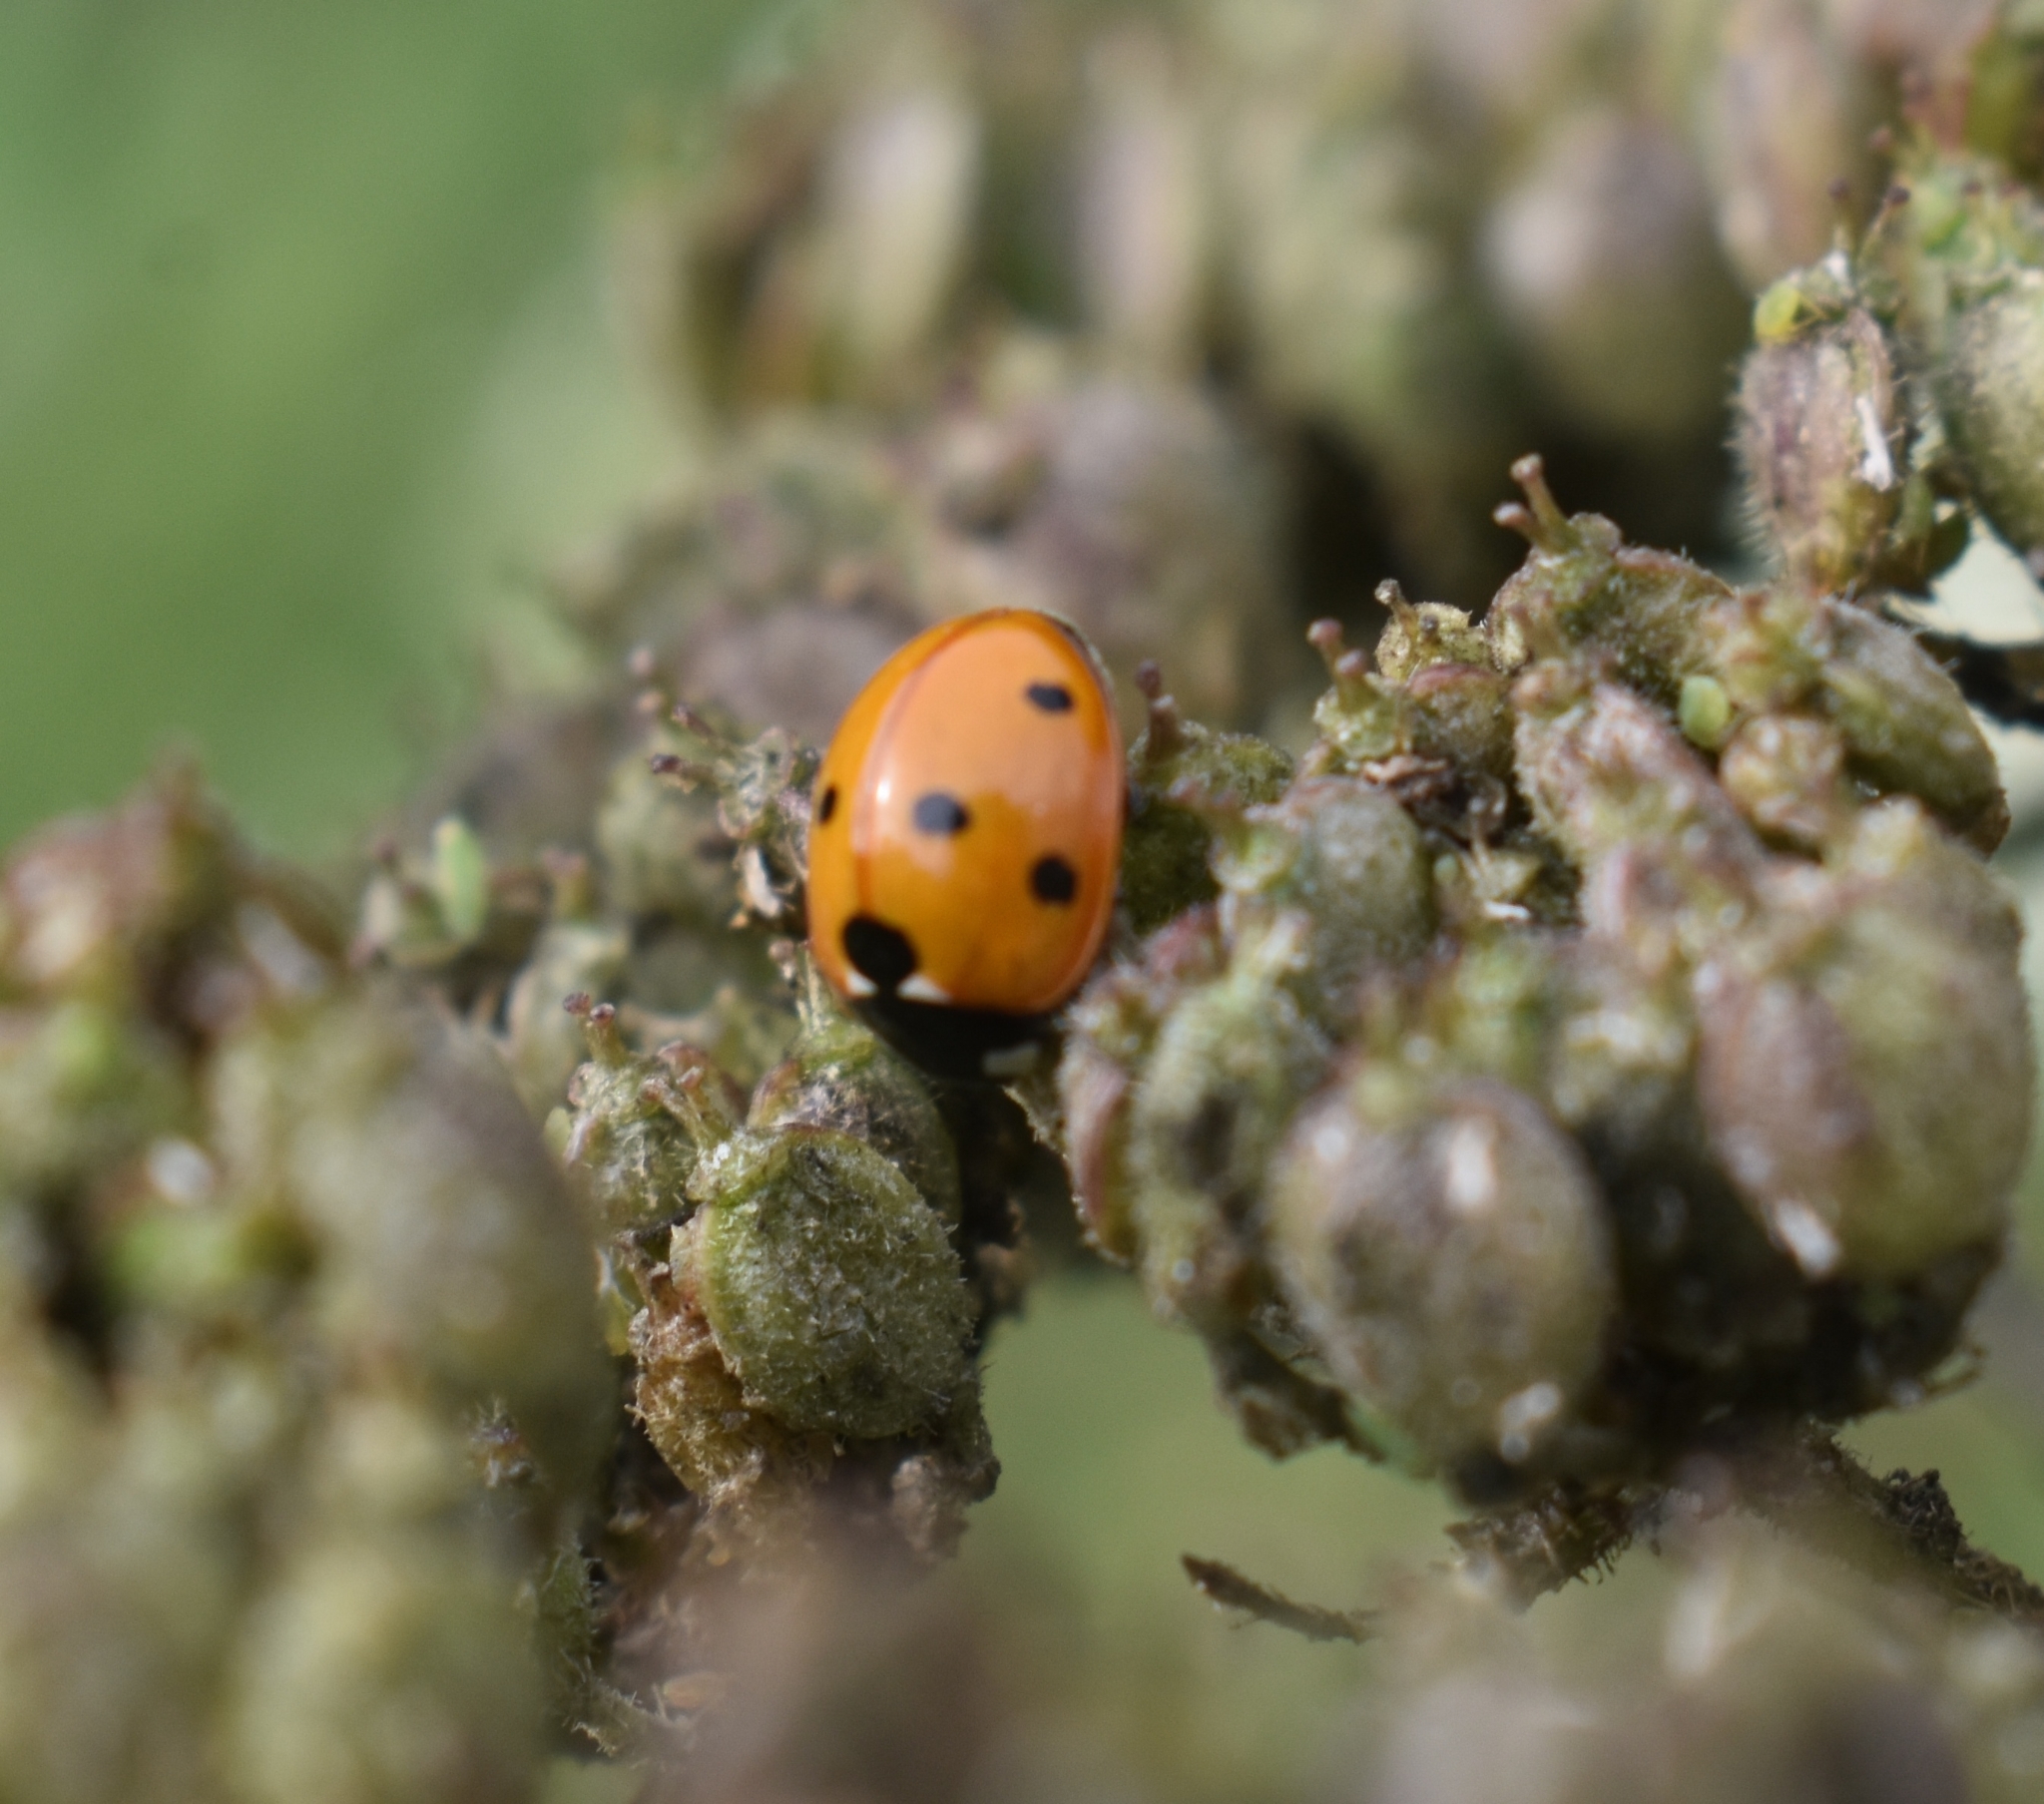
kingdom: Animalia
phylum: Arthropoda
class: Insecta
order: Coleoptera
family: Coccinellidae
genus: Coccinella
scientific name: Coccinella septempunctata
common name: Sevenspotted lady beetle
